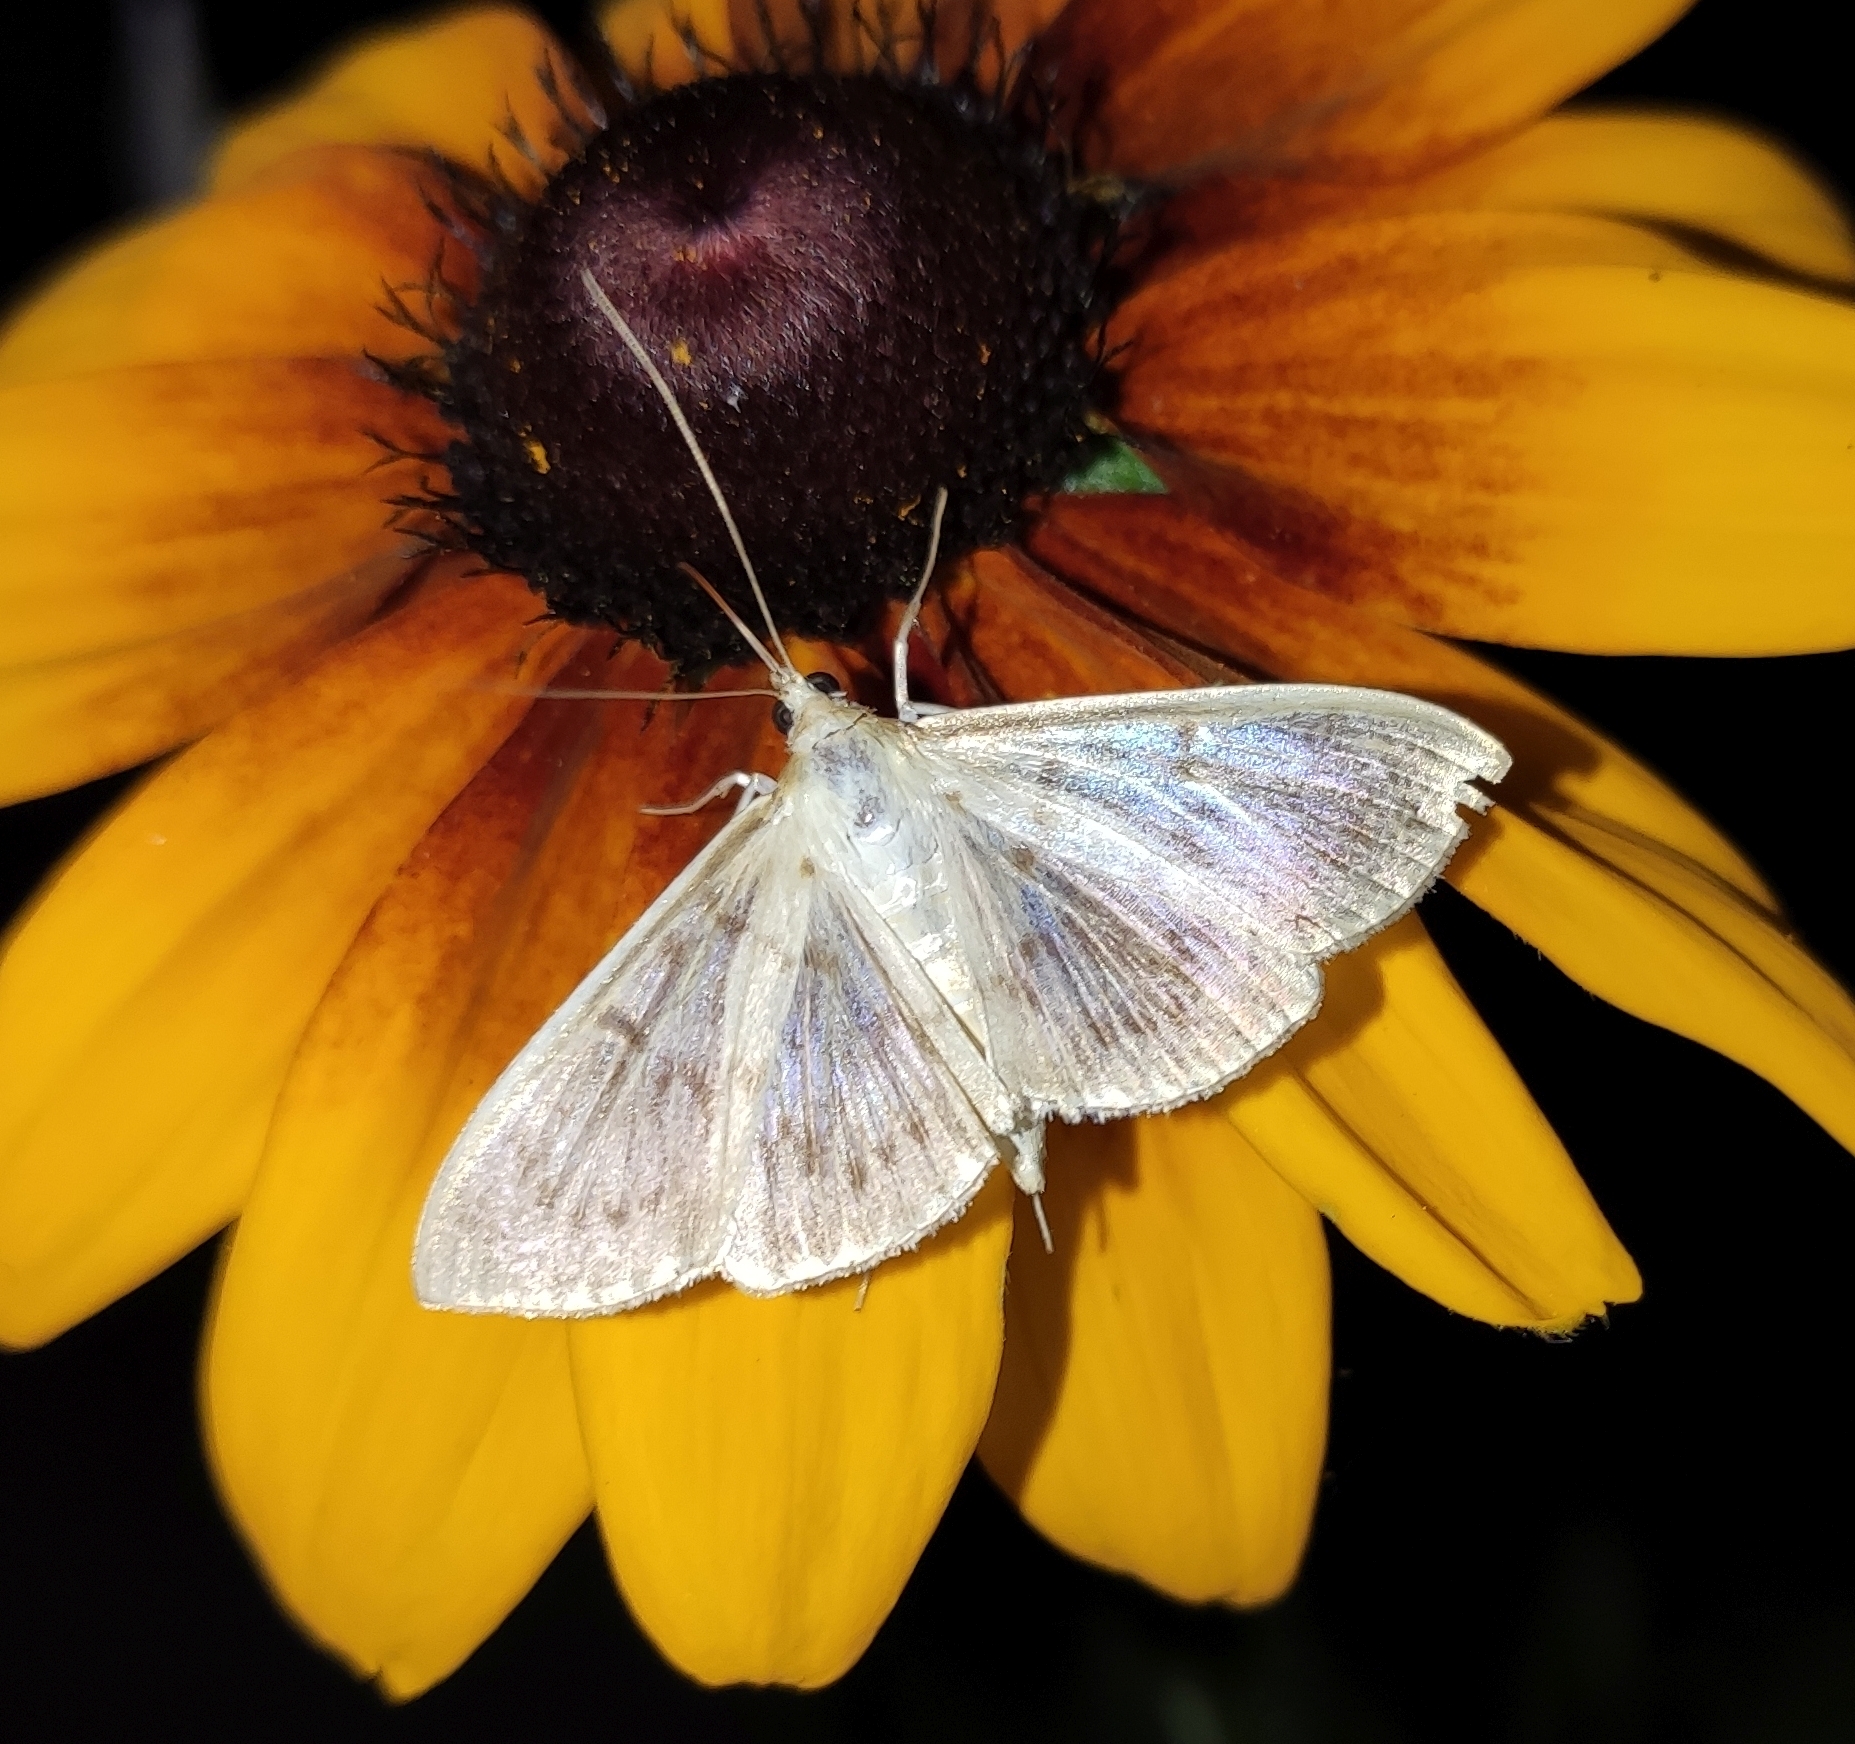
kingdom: Animalia
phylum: Arthropoda
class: Insecta
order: Lepidoptera
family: Crambidae
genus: Patania
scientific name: Patania ruralis
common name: Mother of pearl
